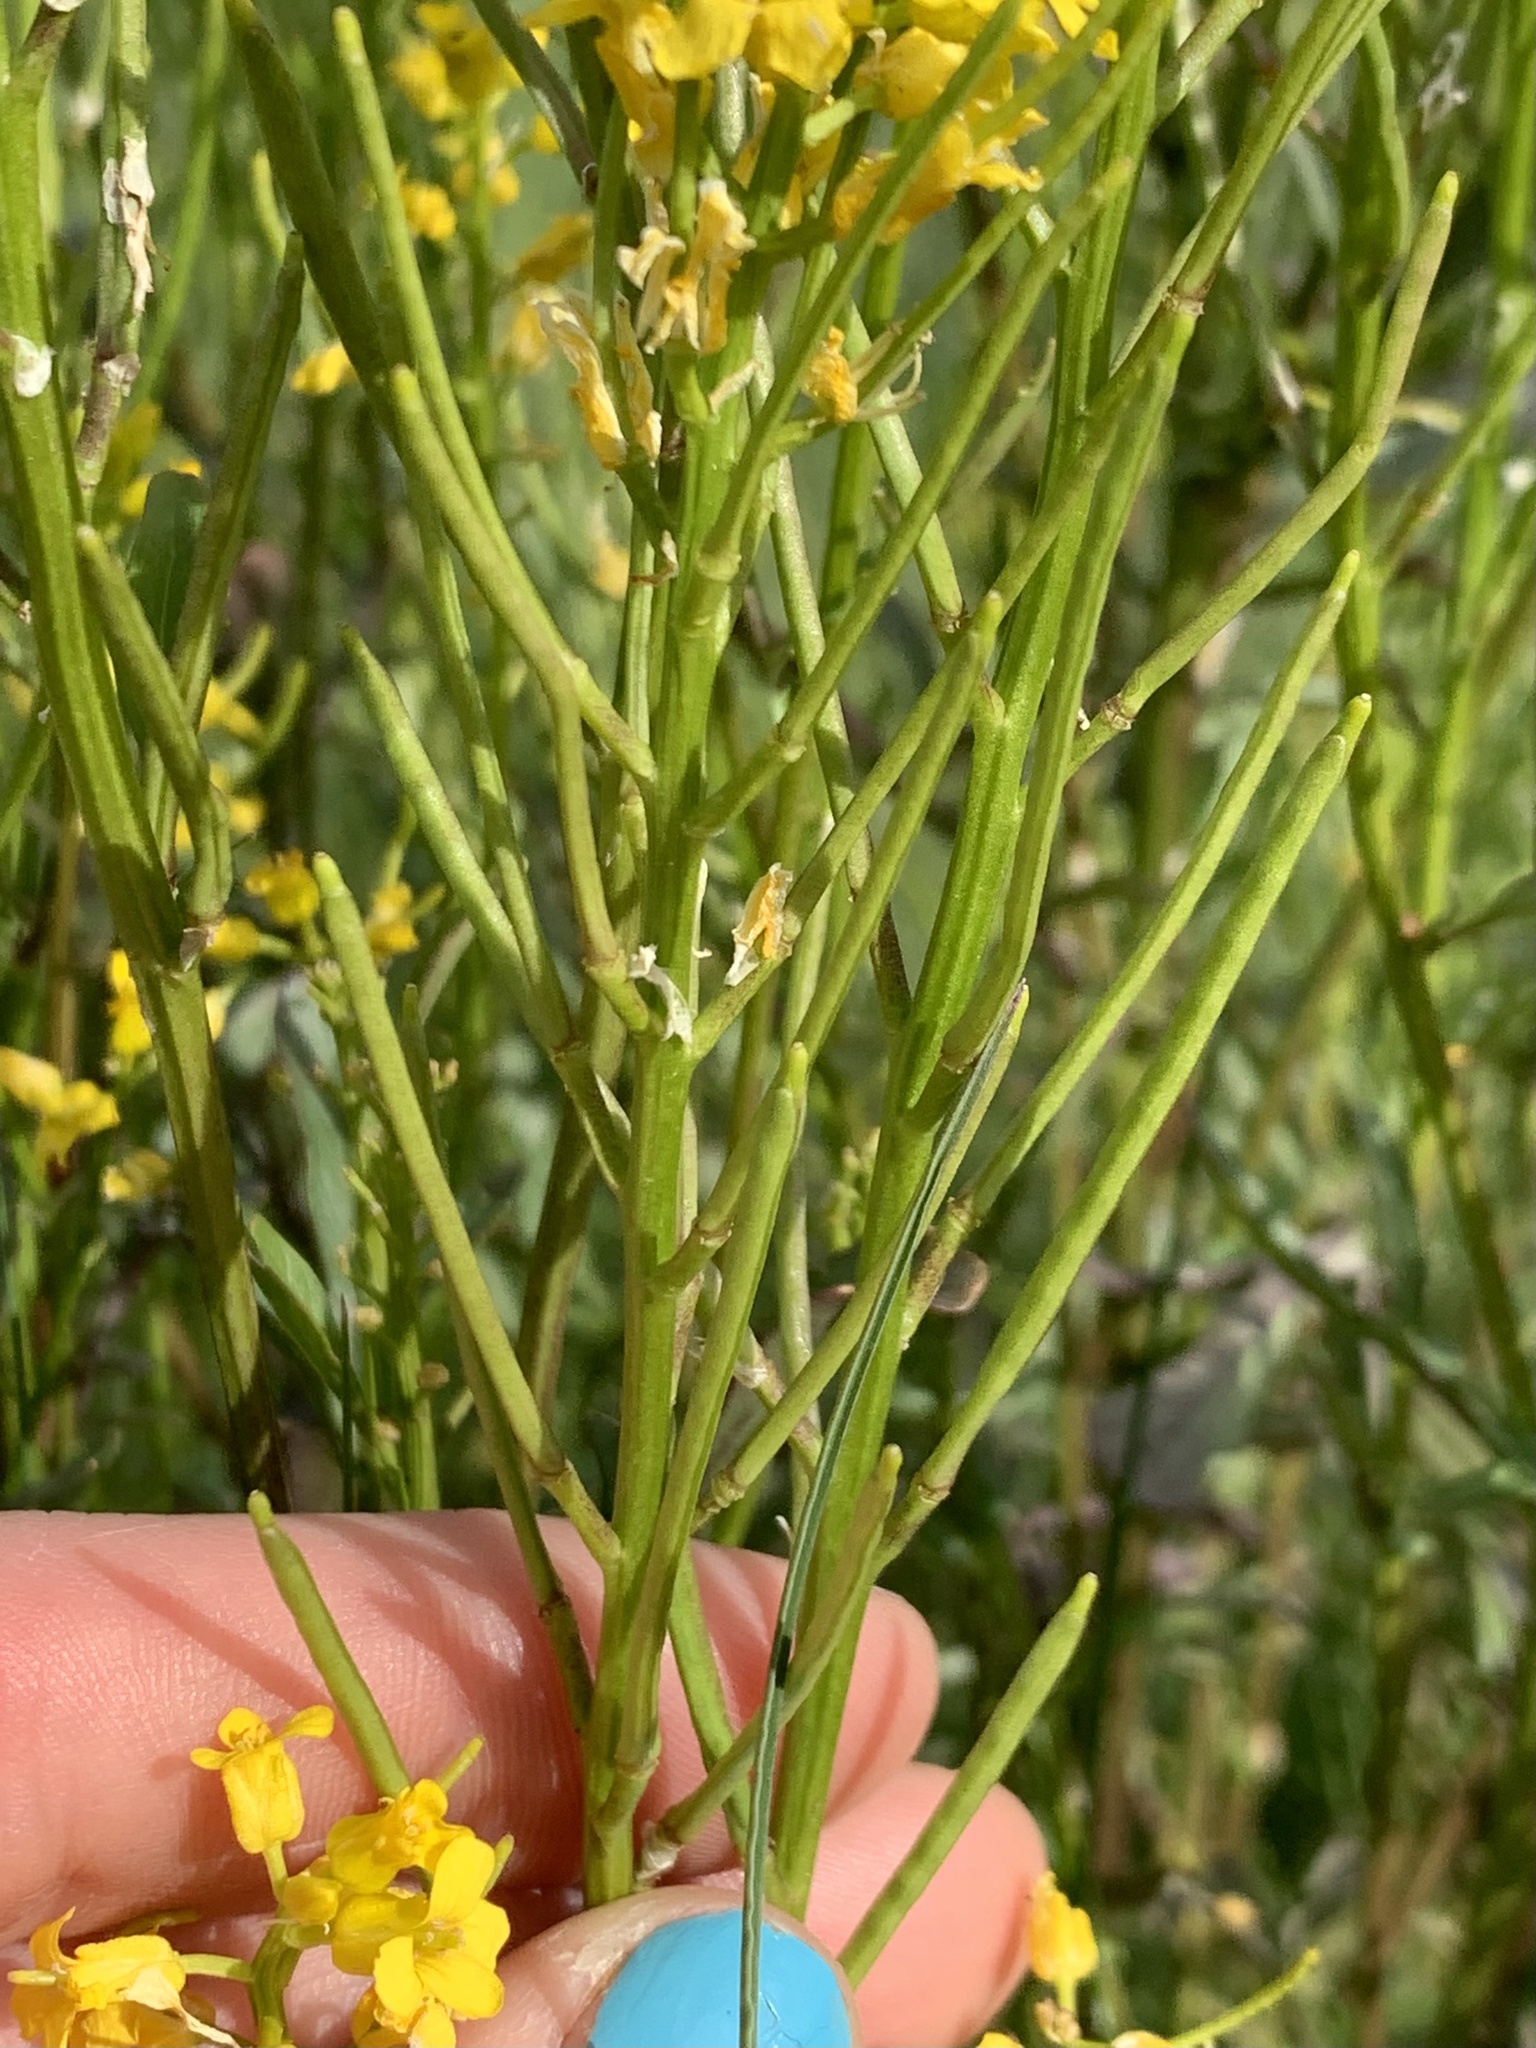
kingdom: Plantae
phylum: Tracheophyta
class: Magnoliopsida
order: Brassicales
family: Brassicaceae
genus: Barbarea
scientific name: Barbarea orthoceras
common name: American wintercress
